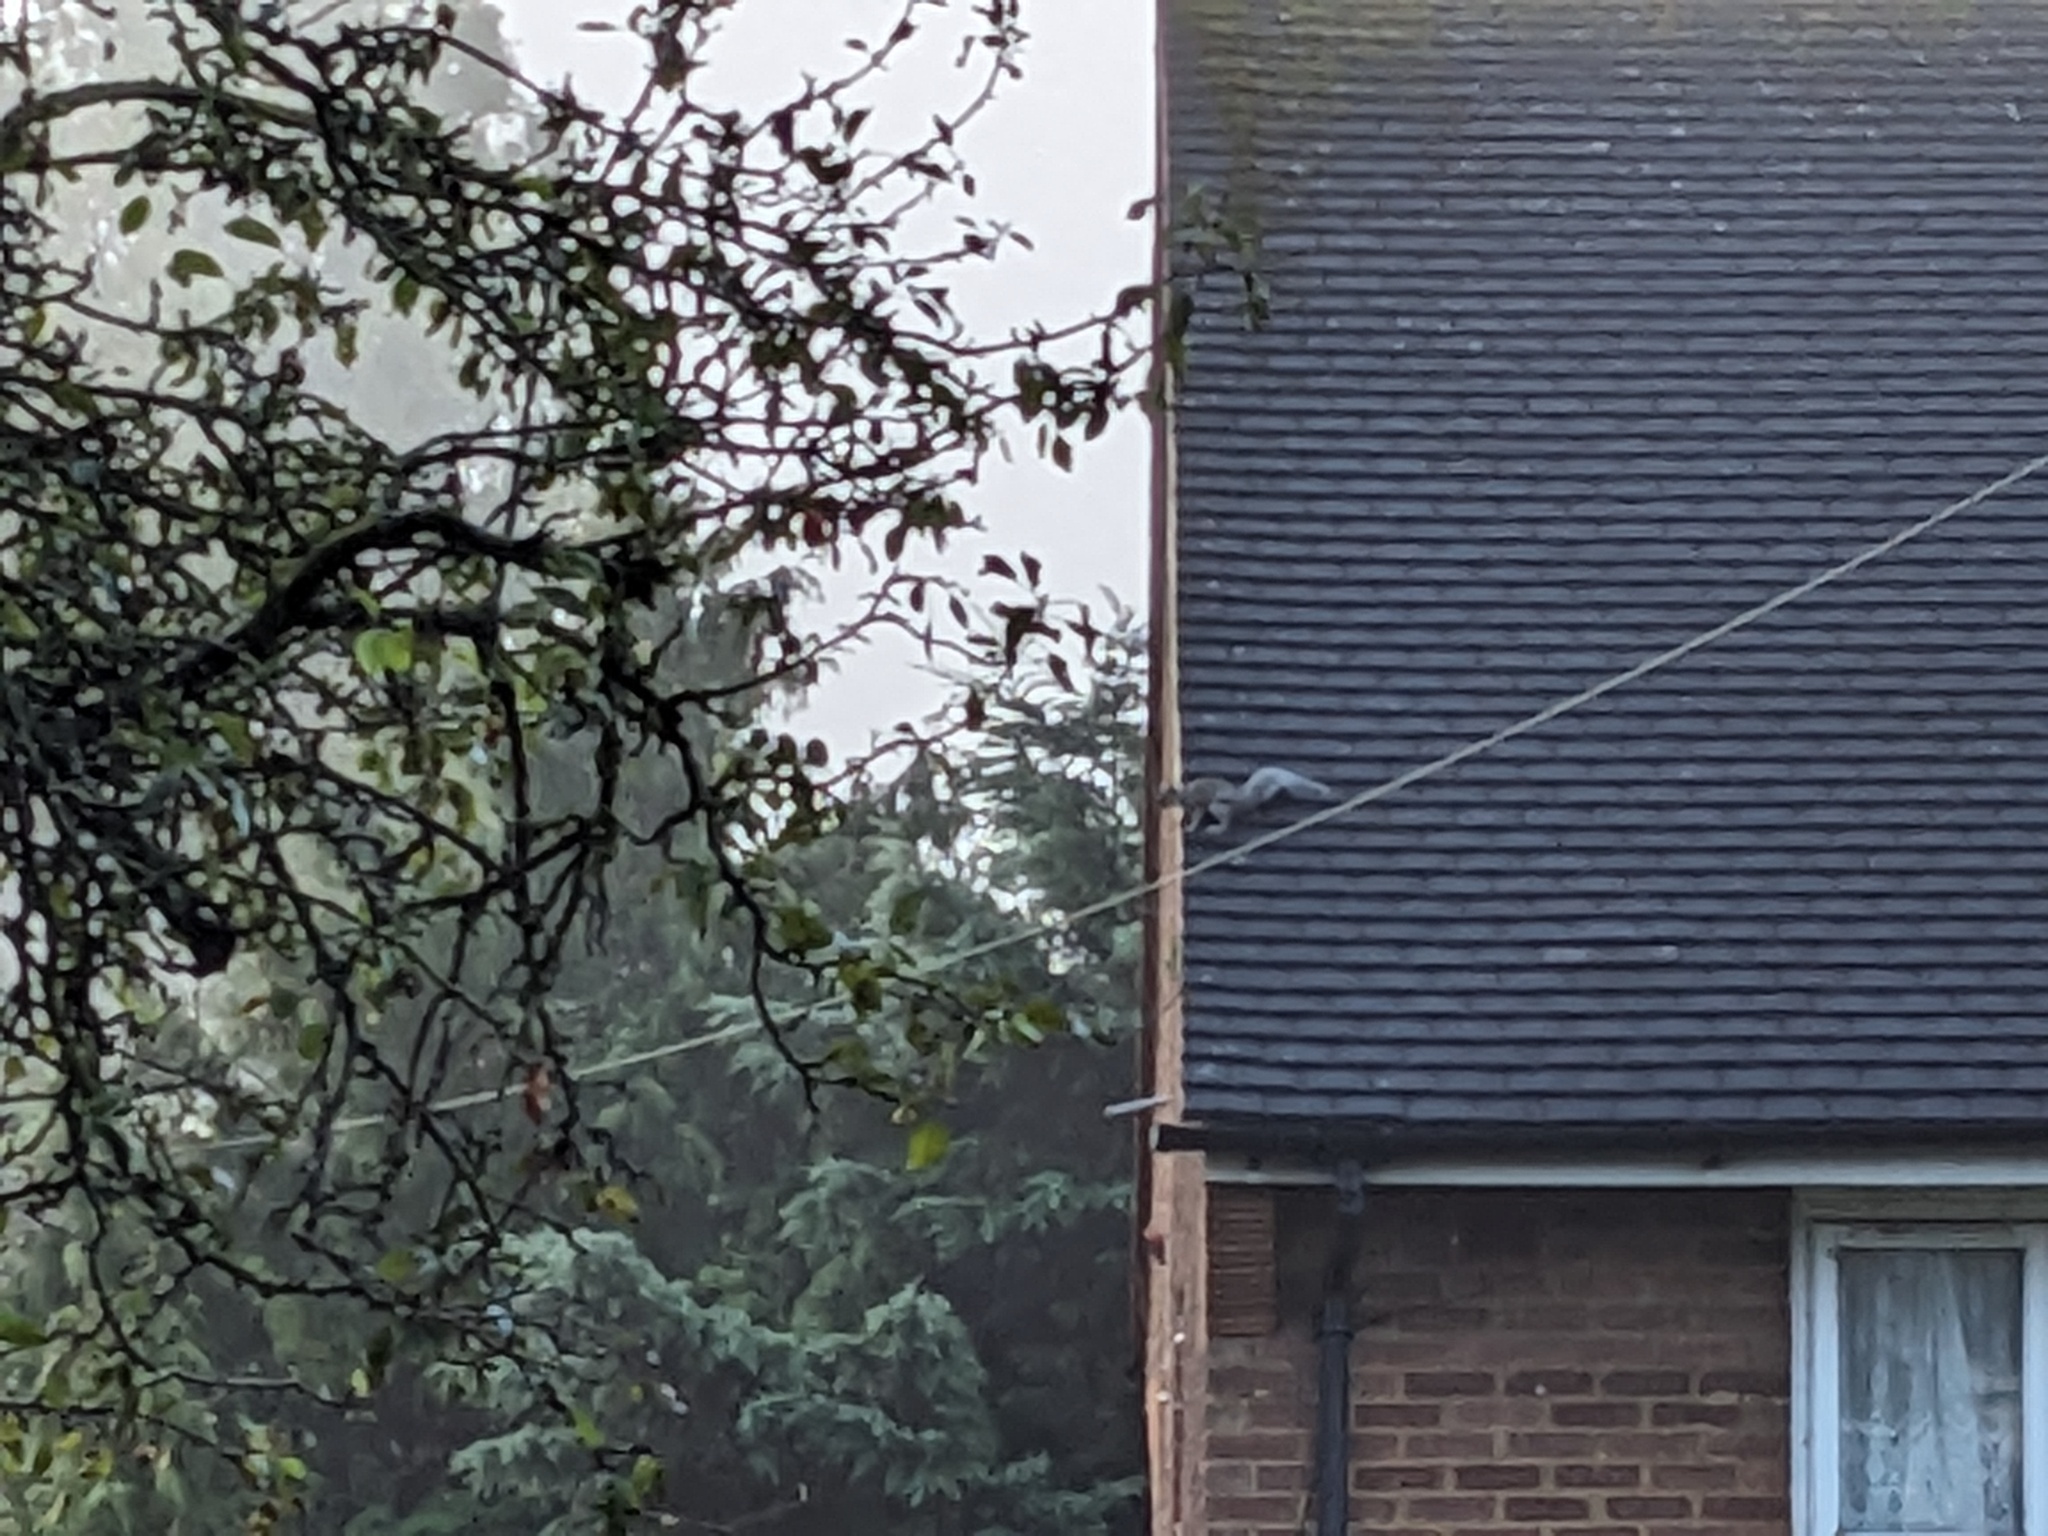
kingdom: Animalia
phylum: Chordata
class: Mammalia
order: Rodentia
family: Sciuridae
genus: Sciurus
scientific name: Sciurus carolinensis
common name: Eastern gray squirrel
